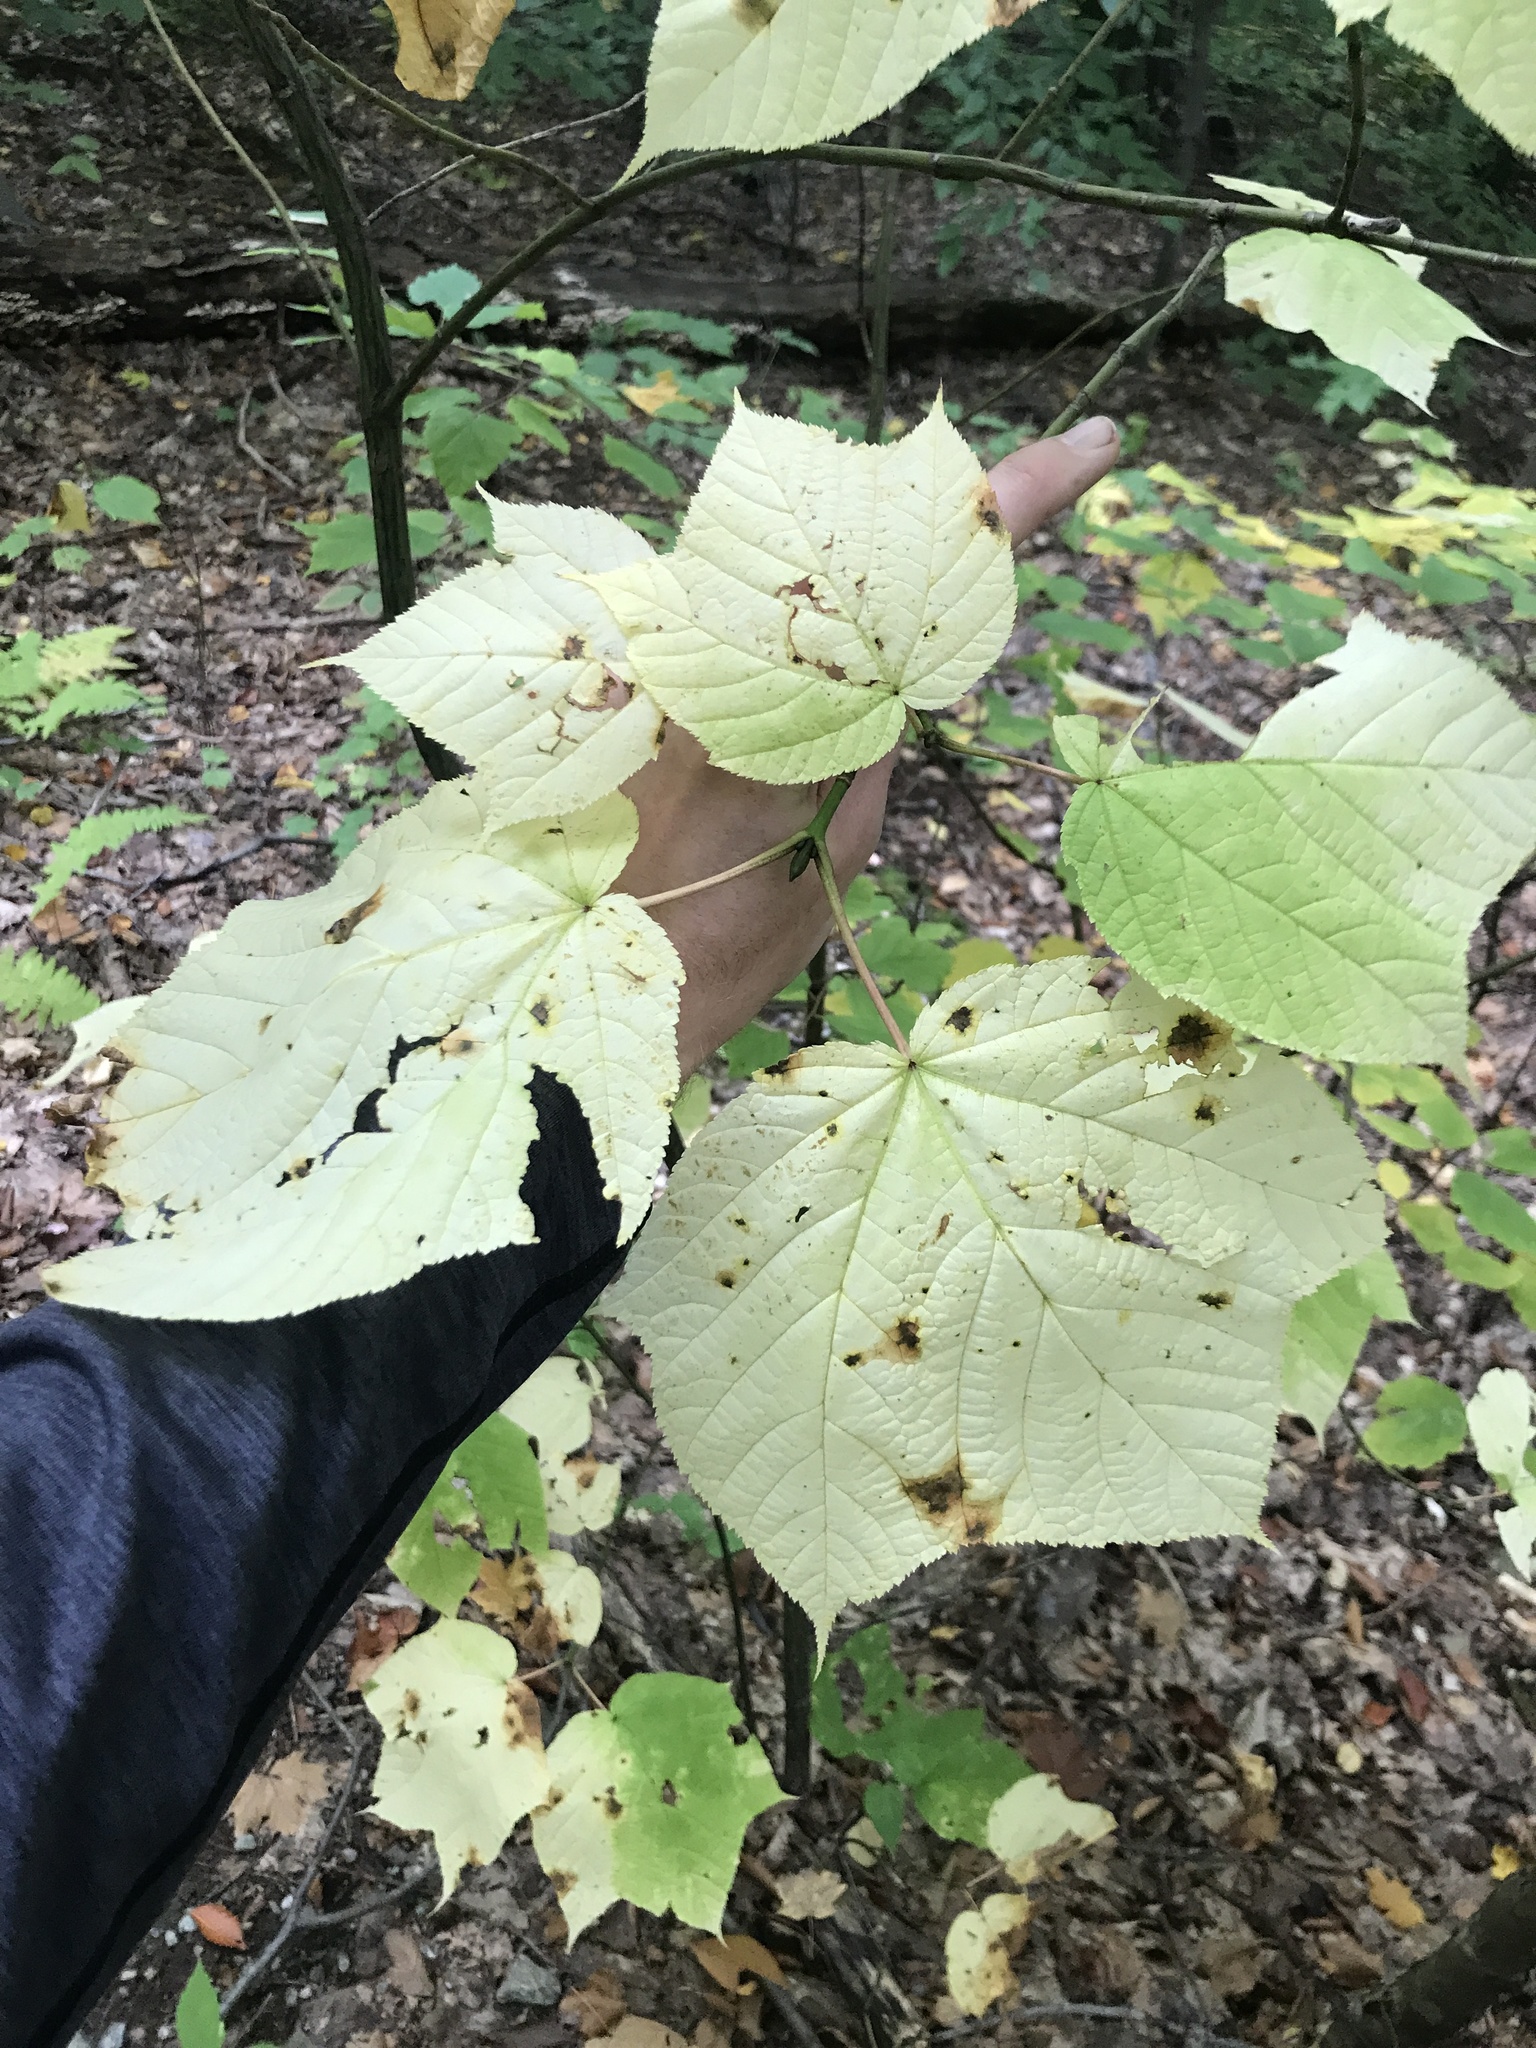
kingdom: Plantae
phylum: Tracheophyta
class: Magnoliopsida
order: Sapindales
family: Sapindaceae
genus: Acer
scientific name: Acer pensylvanicum
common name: Moosewood
